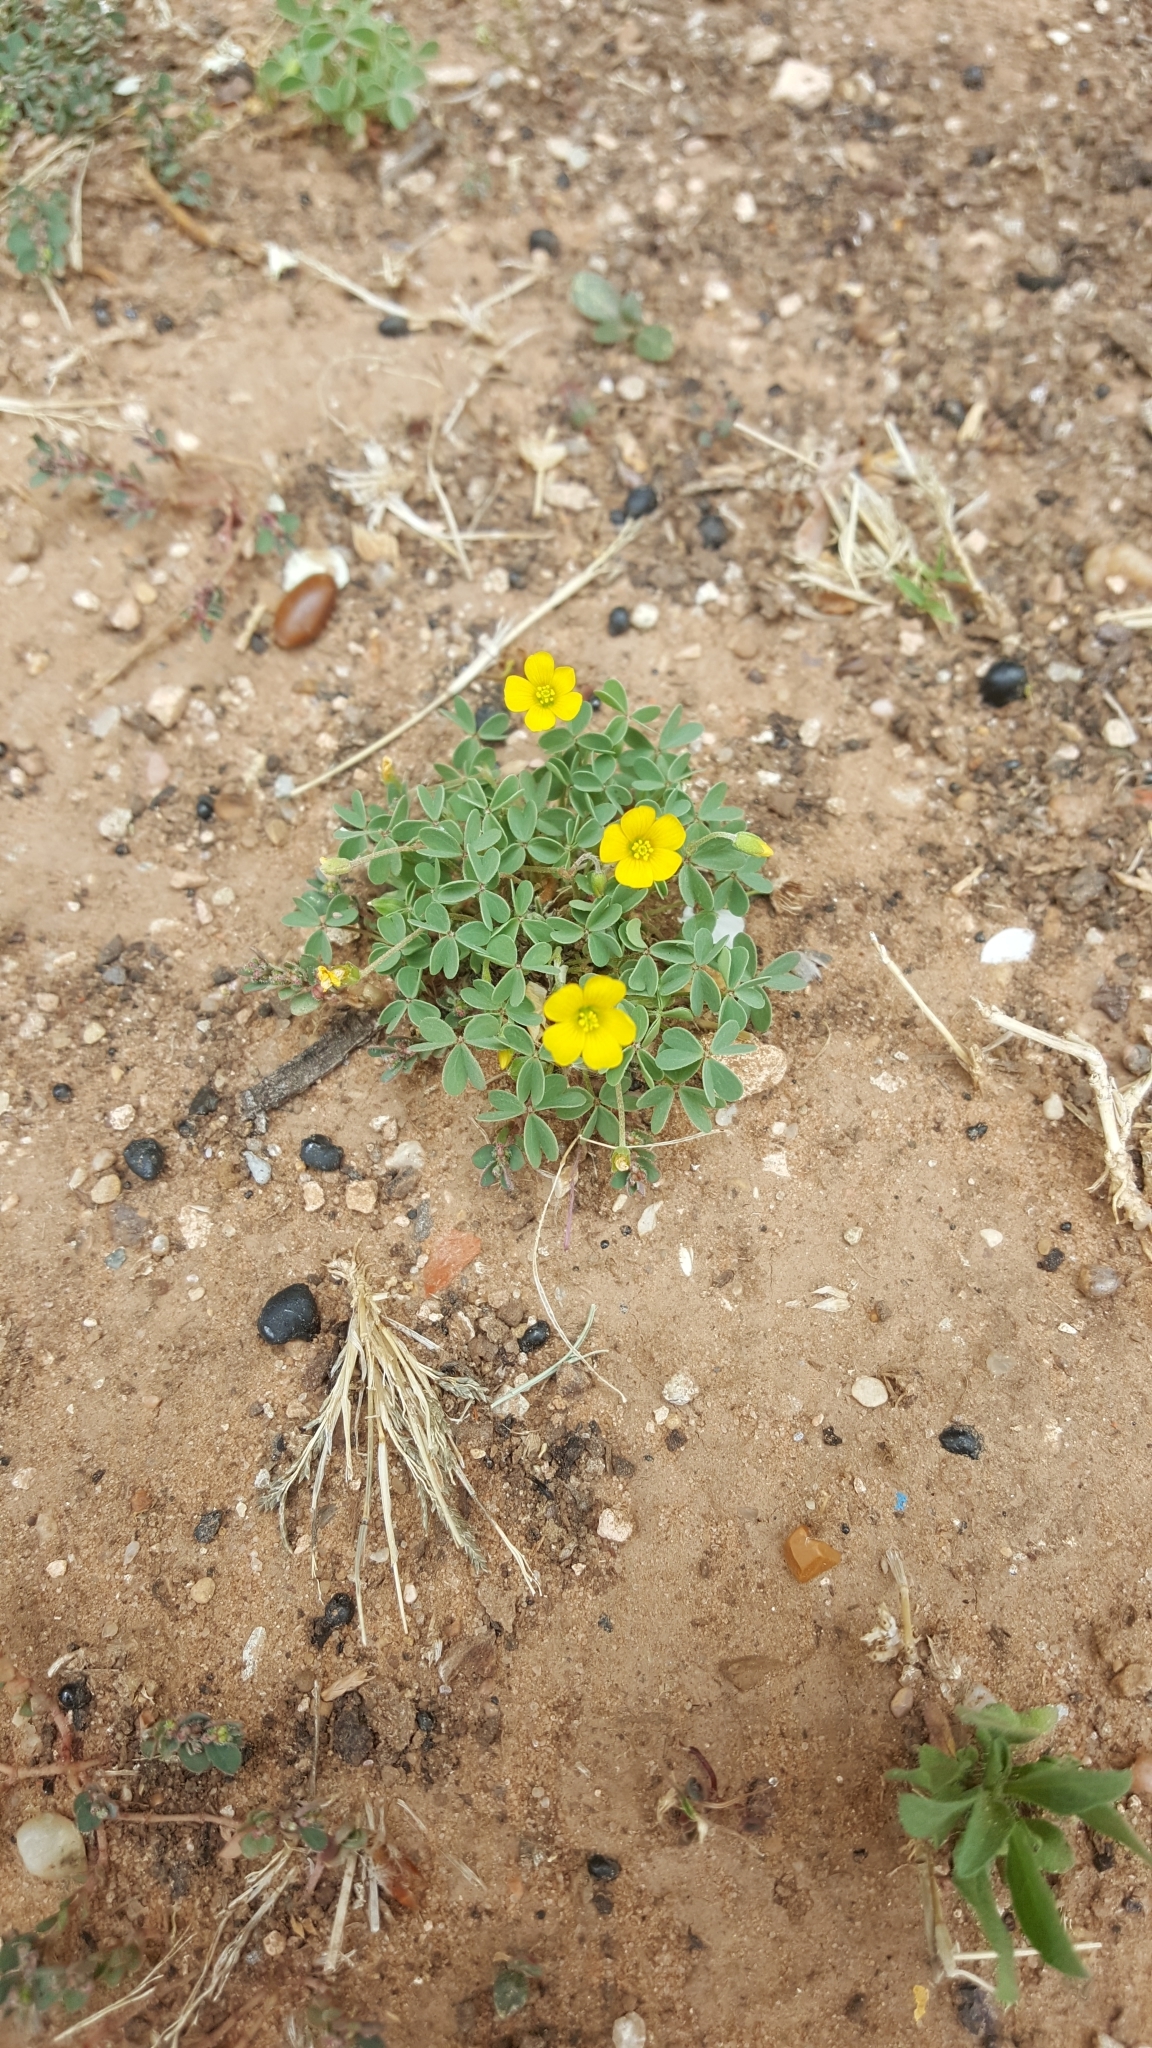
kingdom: Plantae
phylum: Tracheophyta
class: Magnoliopsida
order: Oxalidales
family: Oxalidaceae
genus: Oxalis
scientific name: Oxalis corniculata
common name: Procumbent yellow-sorrel
